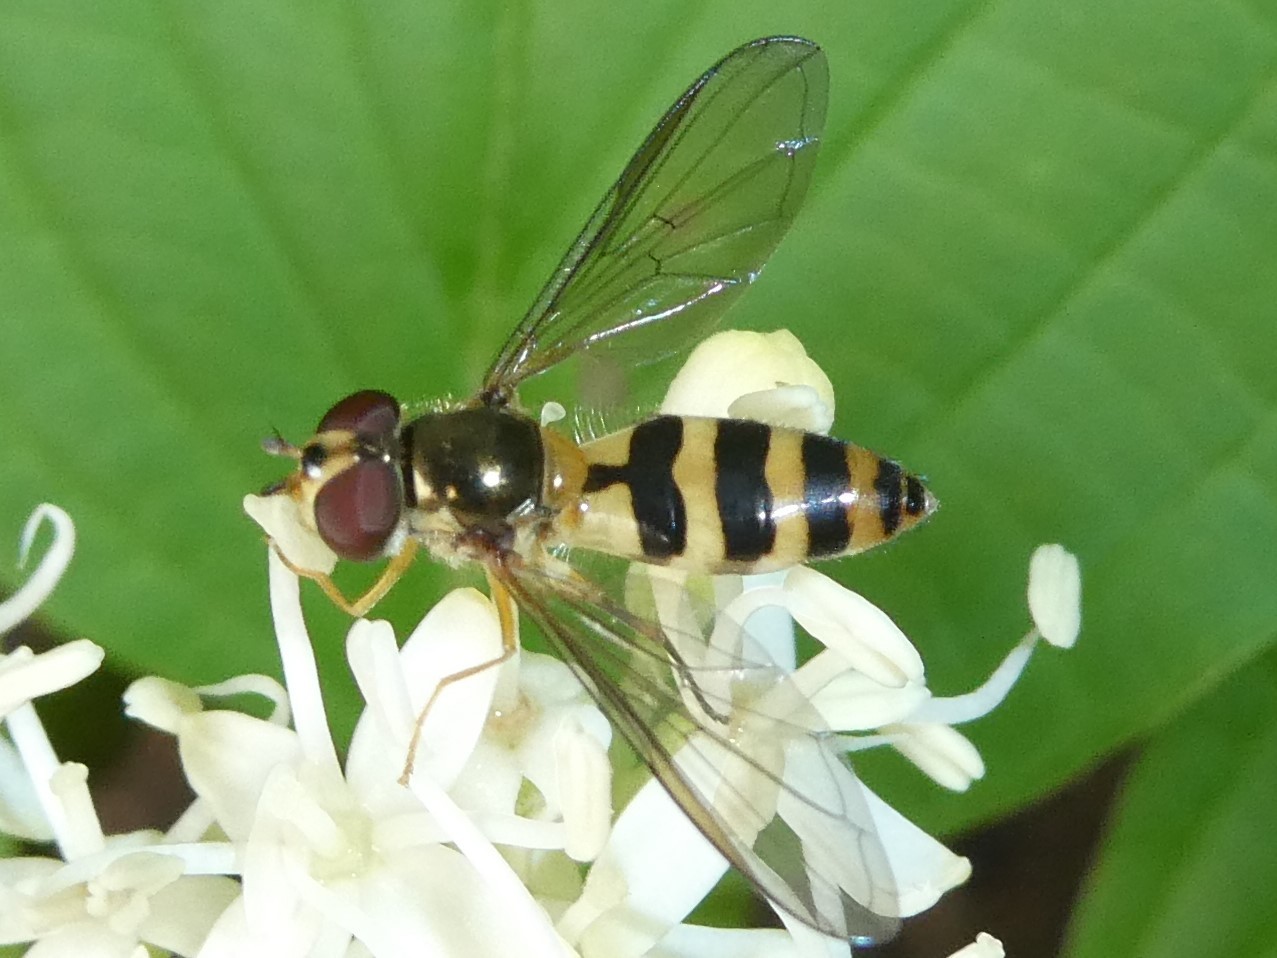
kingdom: Animalia
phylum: Arthropoda
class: Insecta
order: Diptera
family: Syrphidae
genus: Meliscaeva
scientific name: Meliscaeva cinctella
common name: American thintail fly
